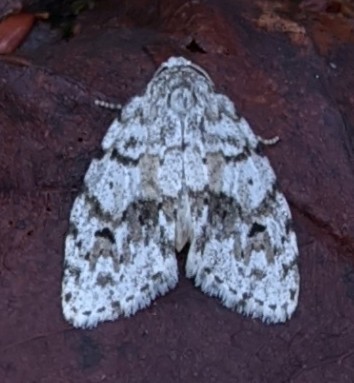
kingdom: Animalia
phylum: Arthropoda
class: Insecta
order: Lepidoptera
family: Erebidae
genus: Clemensia
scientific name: Clemensia albata
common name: Little white lichen moth
